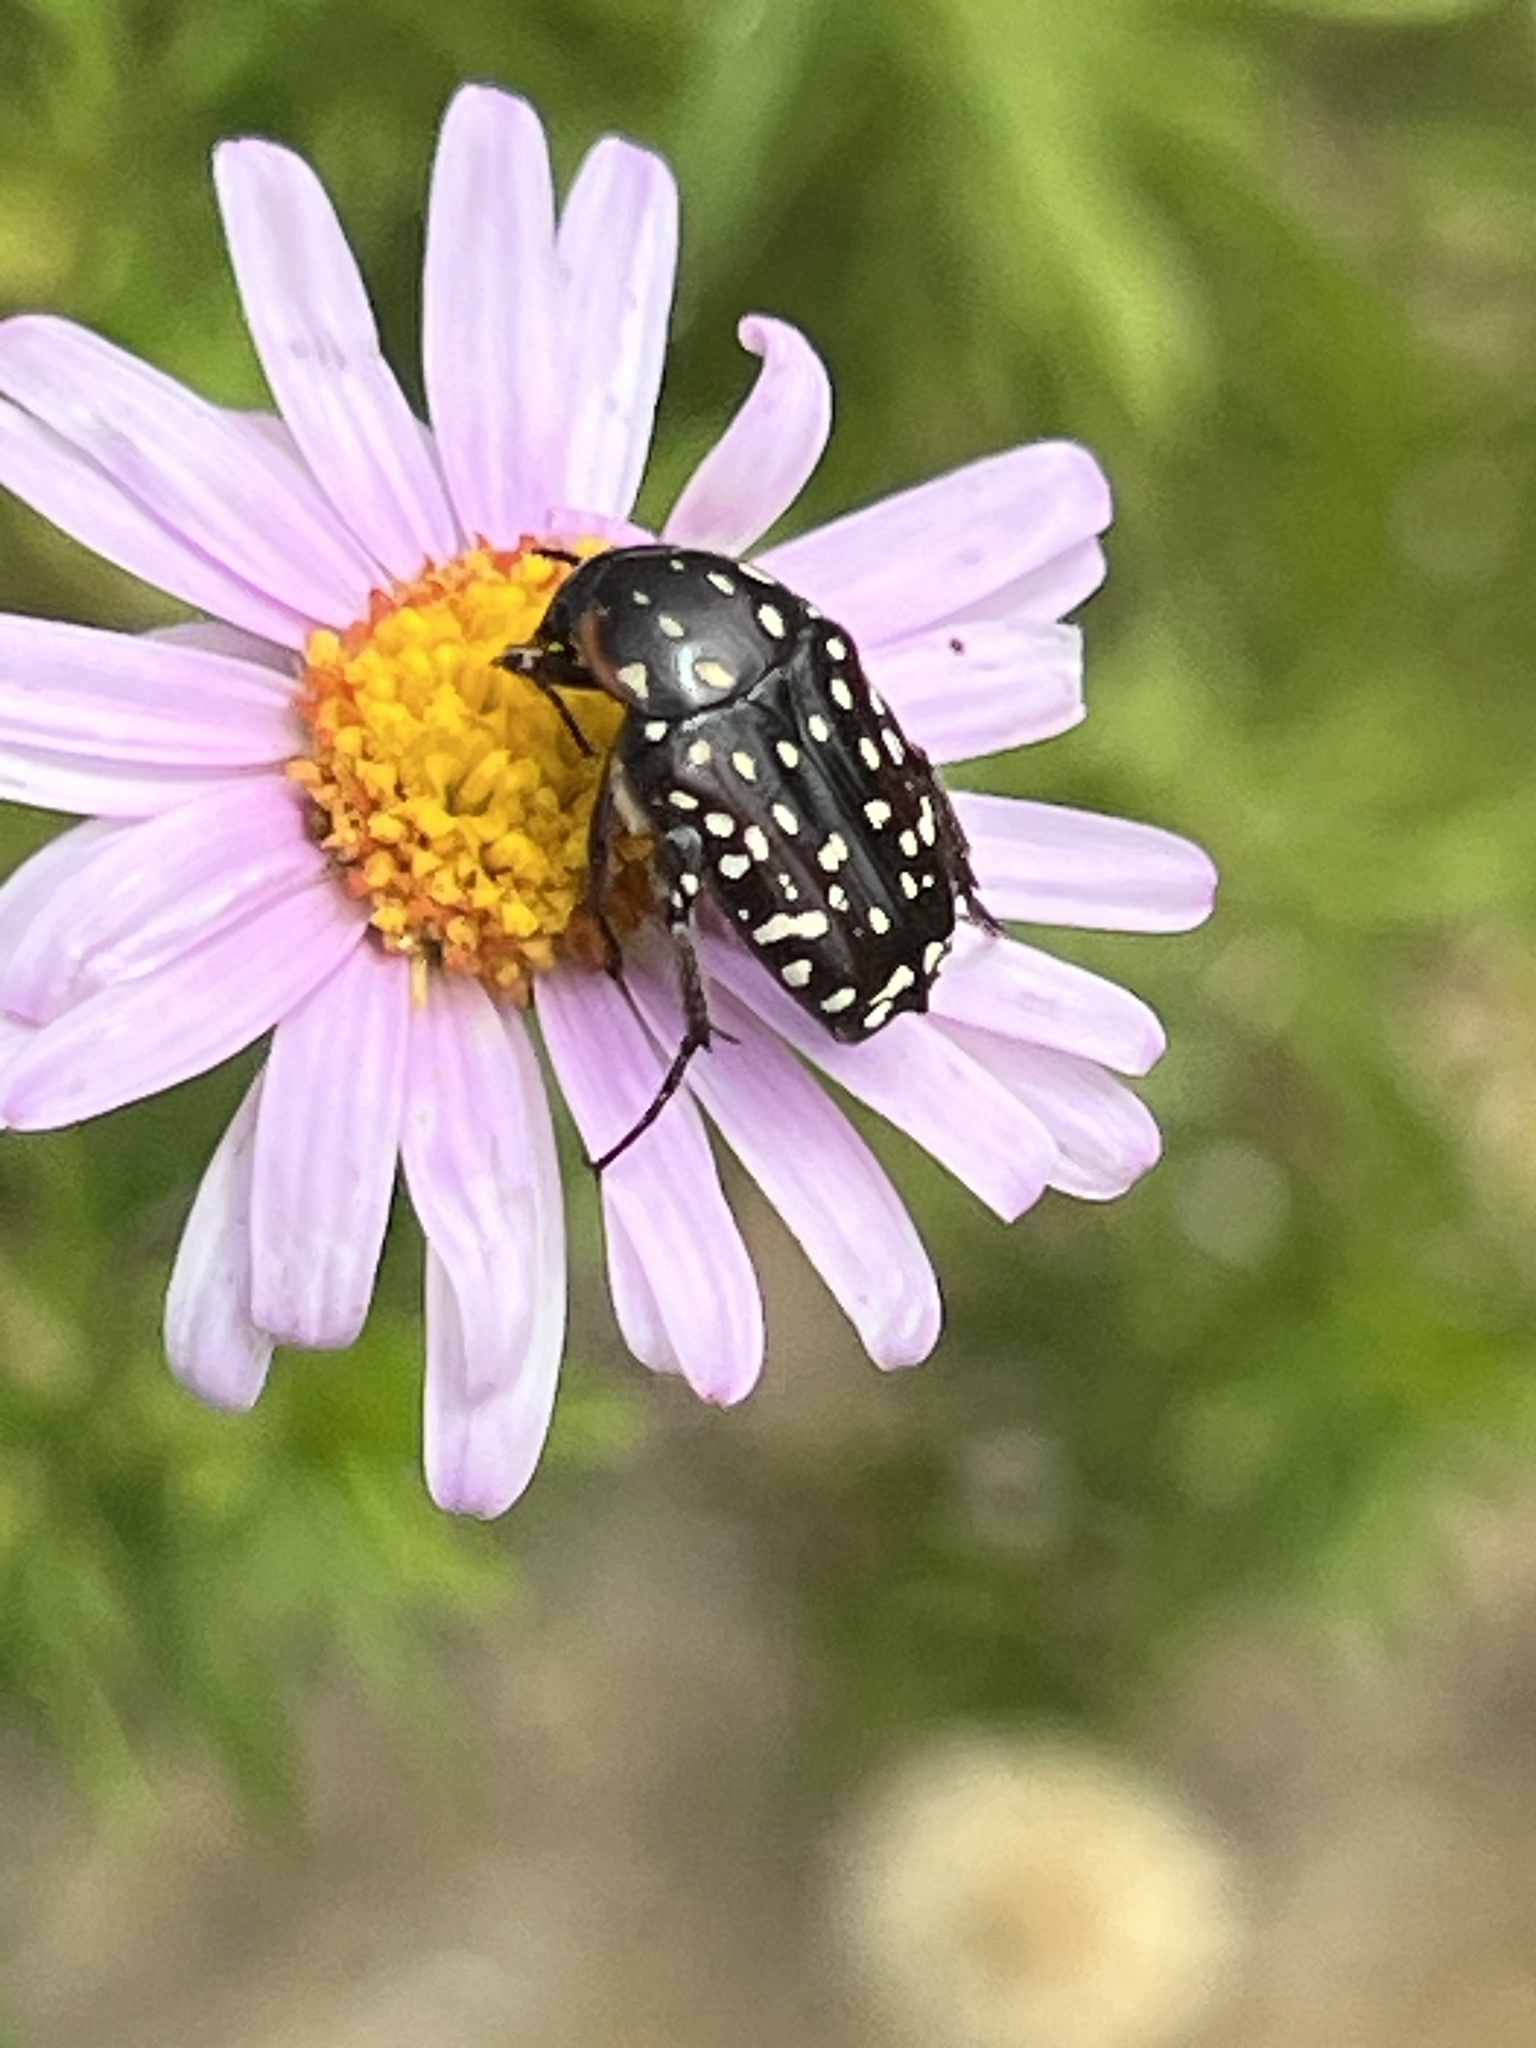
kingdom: Animalia
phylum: Arthropoda
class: Insecta
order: Coleoptera
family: Scarabaeidae
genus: Oxythyrea
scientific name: Oxythyrea
